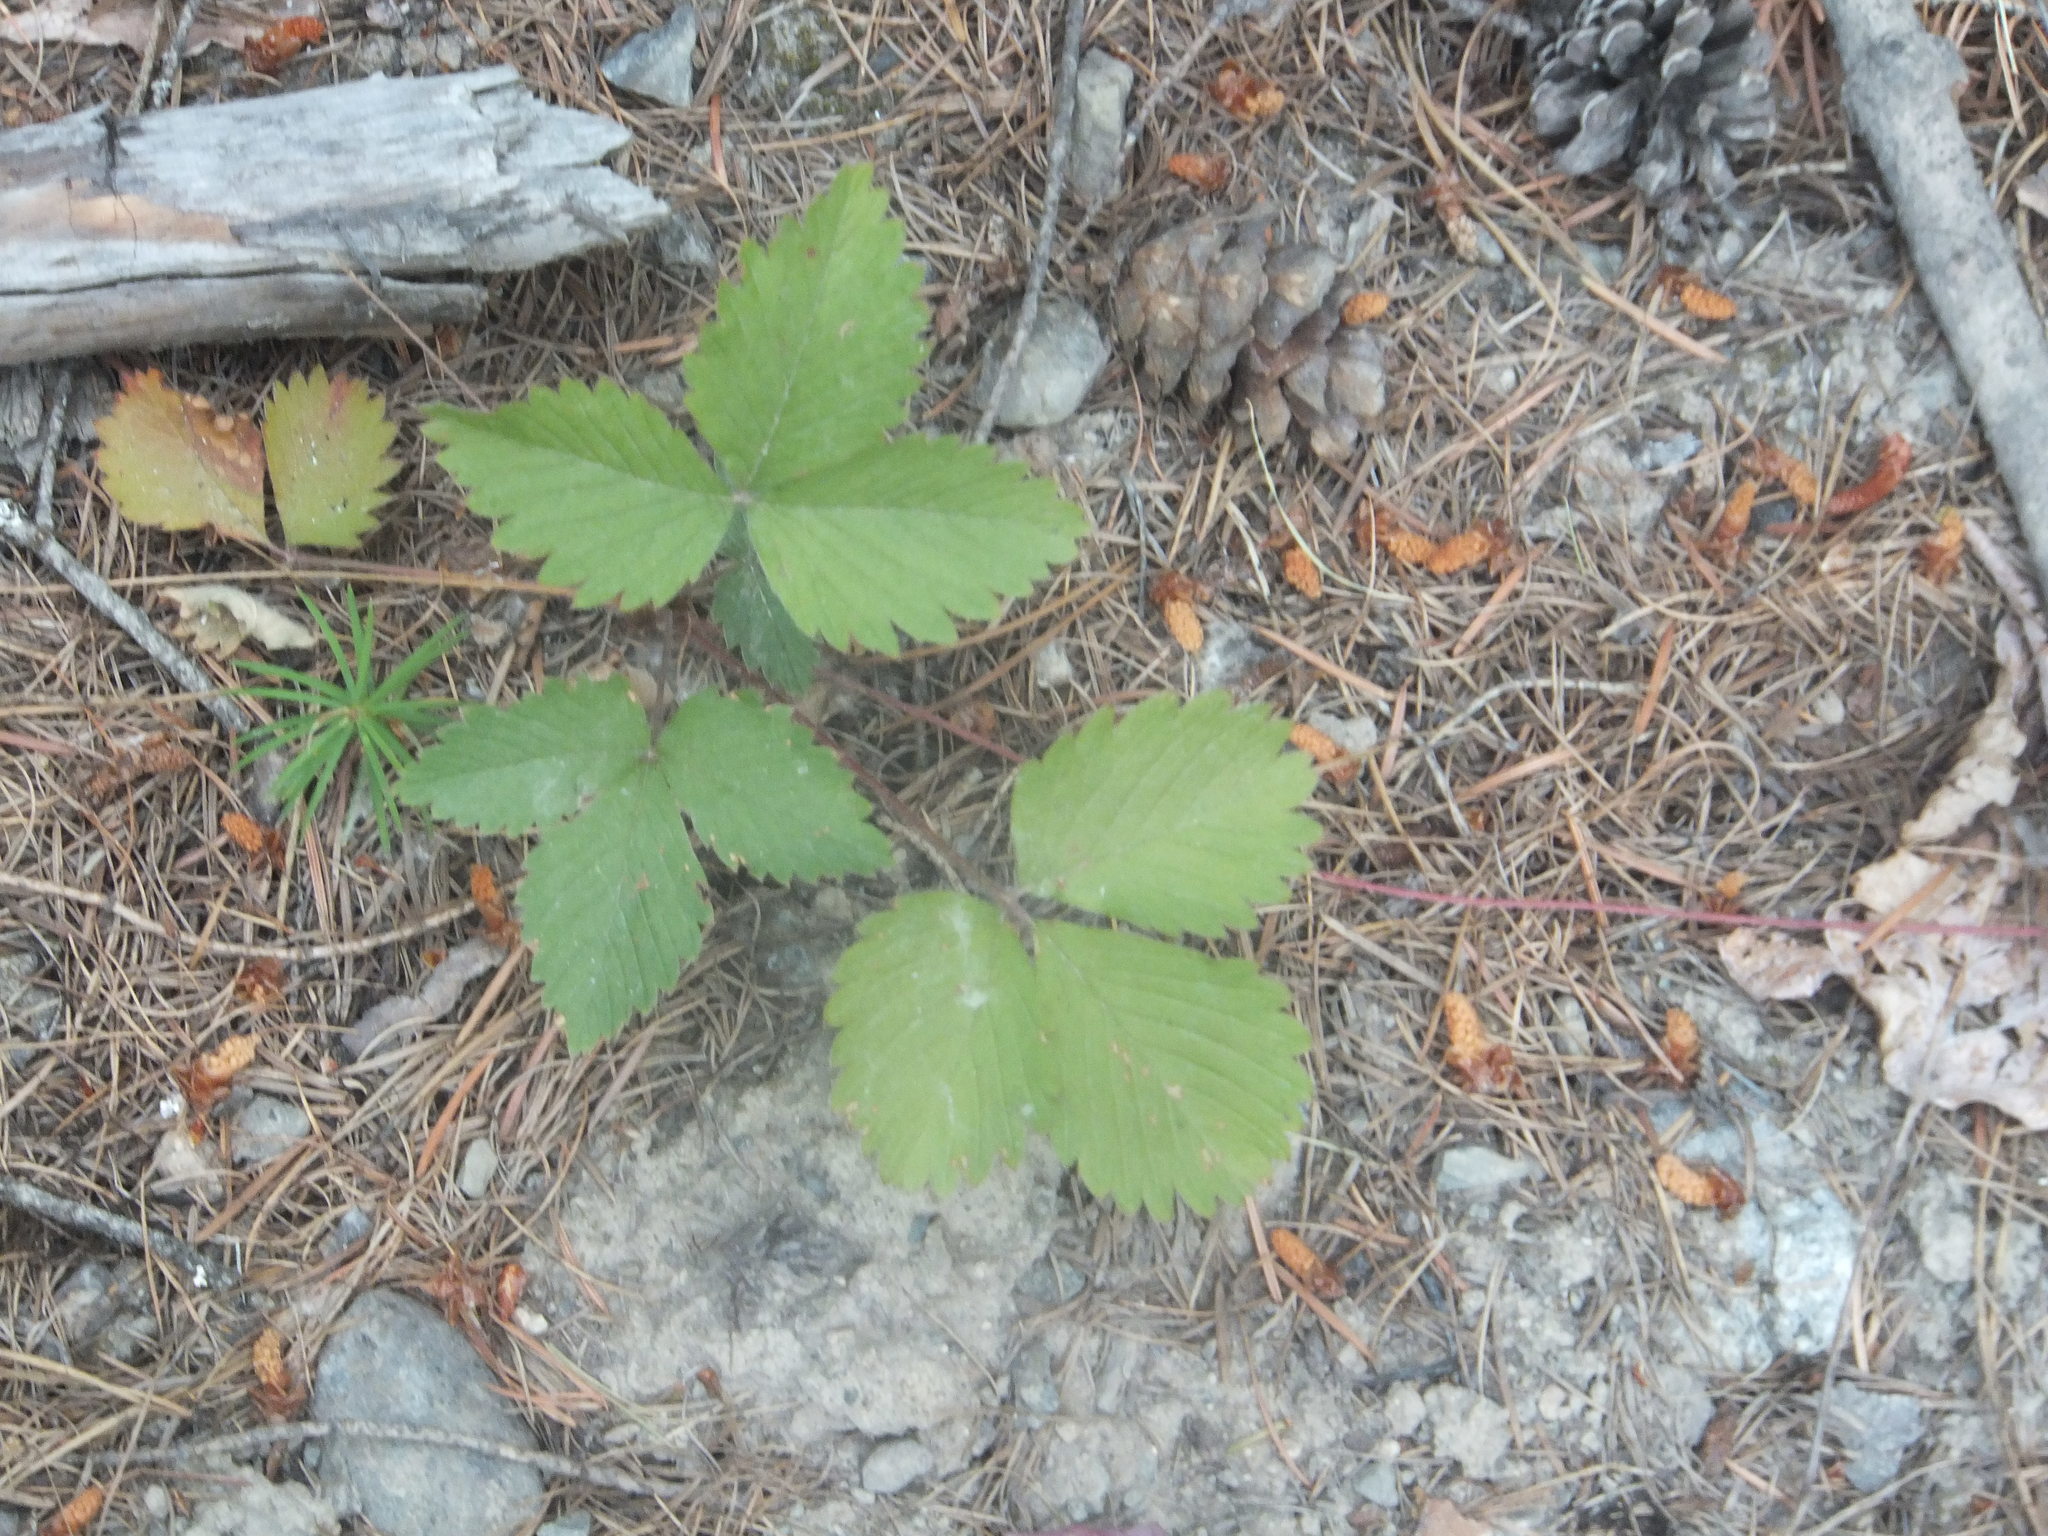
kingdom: Plantae
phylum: Tracheophyta
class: Magnoliopsida
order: Rosales
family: Rosaceae
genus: Fragaria
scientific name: Fragaria vesca
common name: Wild strawberry
